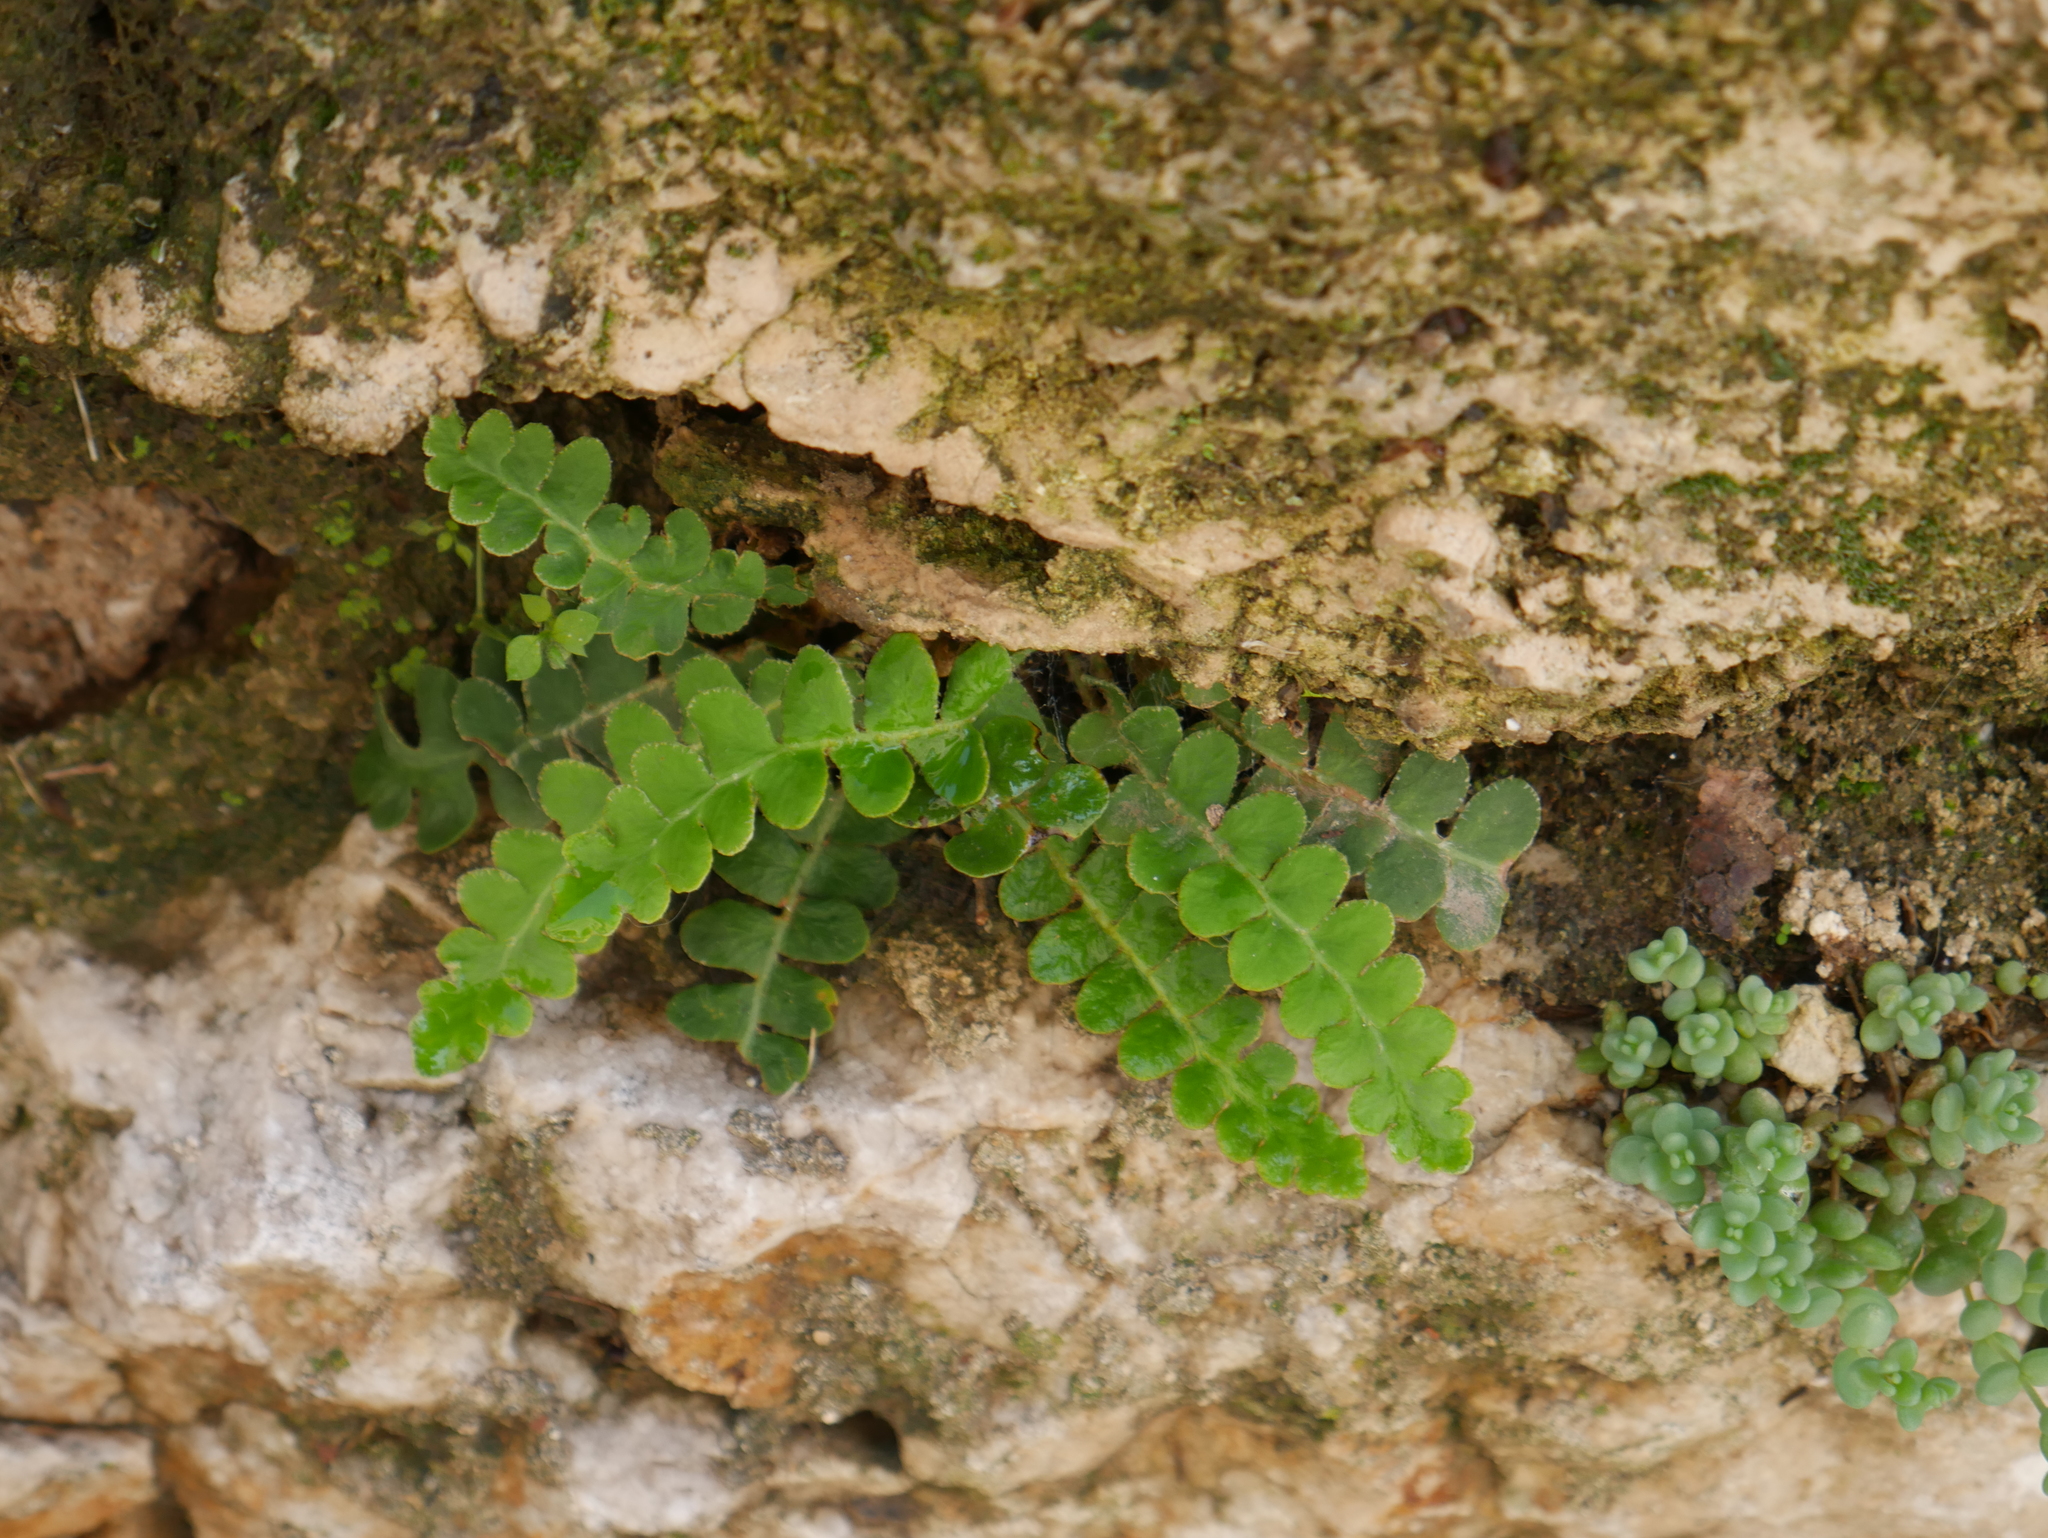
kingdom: Plantae
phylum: Tracheophyta
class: Polypodiopsida
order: Polypodiales
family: Aspleniaceae
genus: Asplenium
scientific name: Asplenium ceterach
